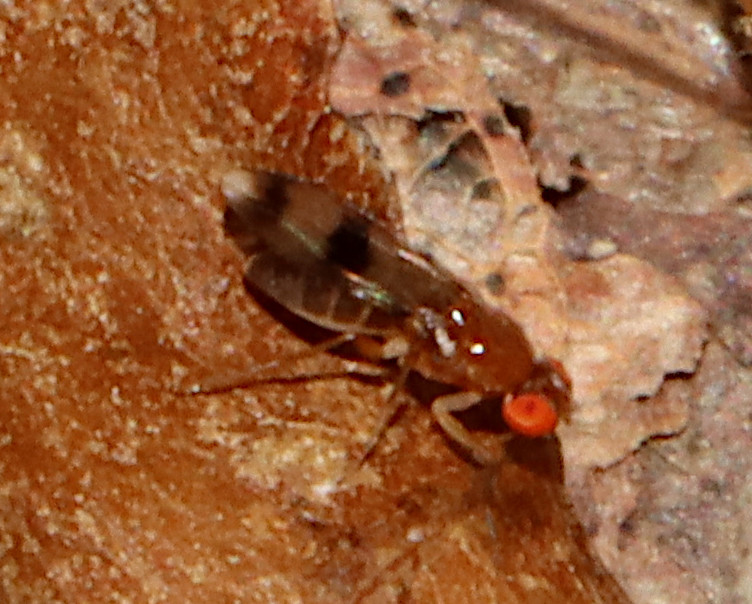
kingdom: Animalia
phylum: Arthropoda
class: Insecta
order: Diptera
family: Drosophilidae
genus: Chymomyza
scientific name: Chymomyza amoena
